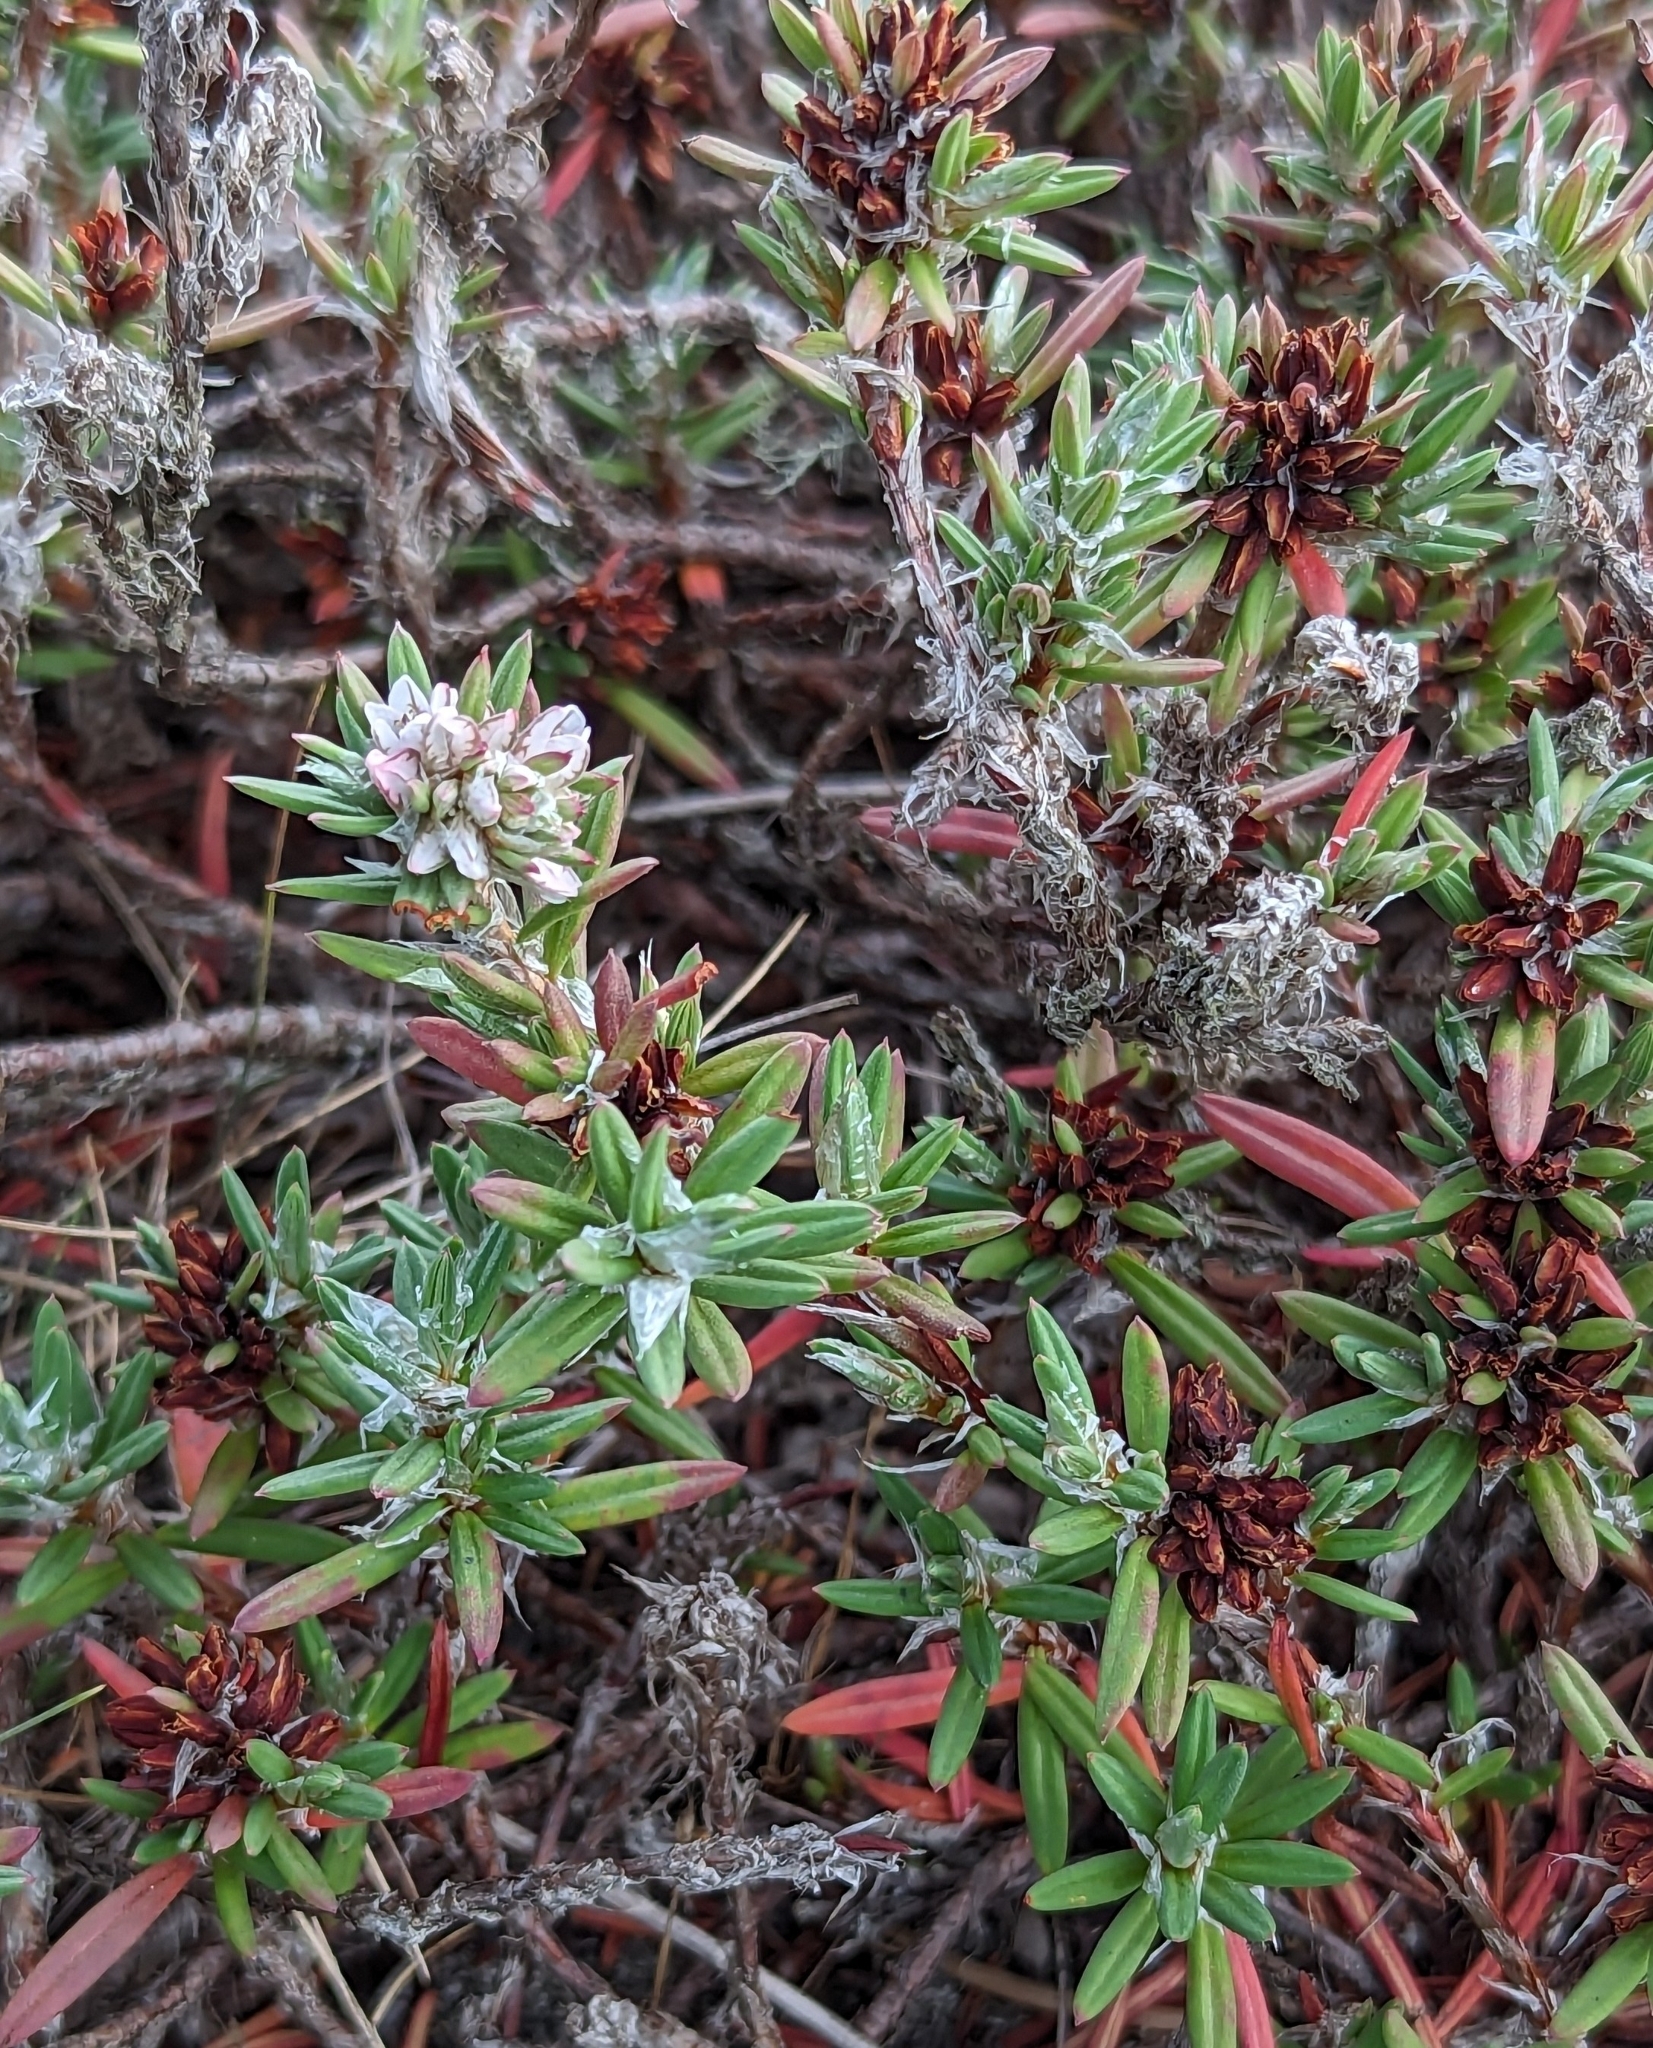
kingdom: Plantae
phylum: Tracheophyta
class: Magnoliopsida
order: Caryophyllales
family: Polygonaceae
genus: Polygonum
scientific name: Polygonum paronychia
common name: Dune knotweed
